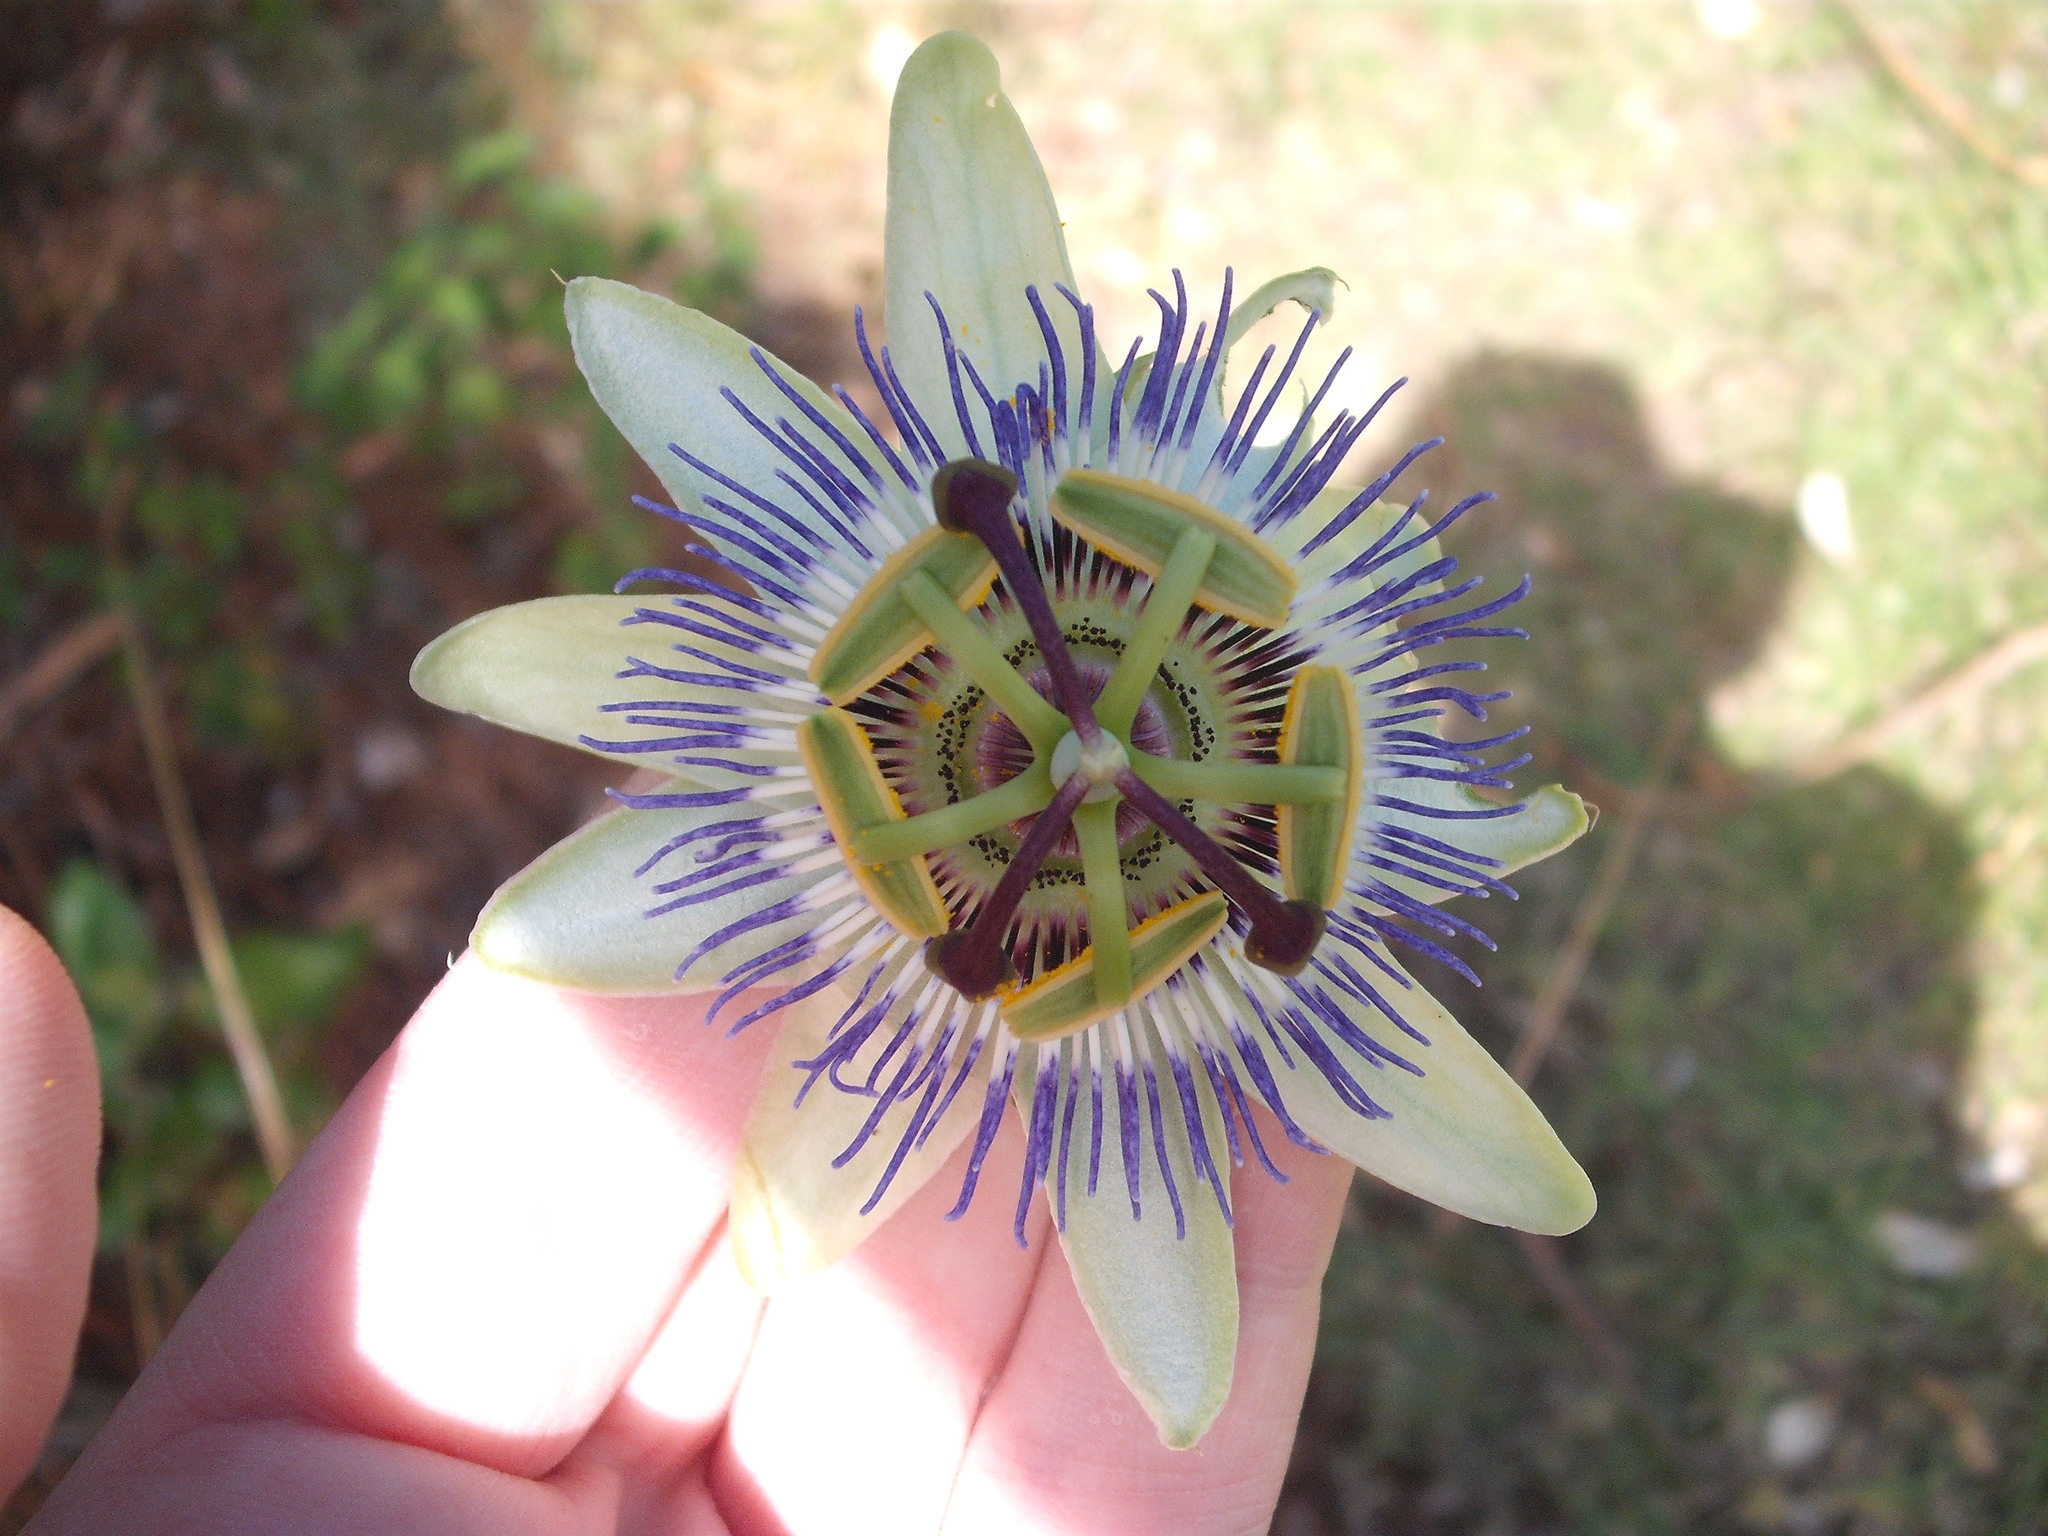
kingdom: Plantae
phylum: Tracheophyta
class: Magnoliopsida
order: Malpighiales
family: Passifloraceae
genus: Passiflora
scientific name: Passiflora caerulea
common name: Blue passionflower
